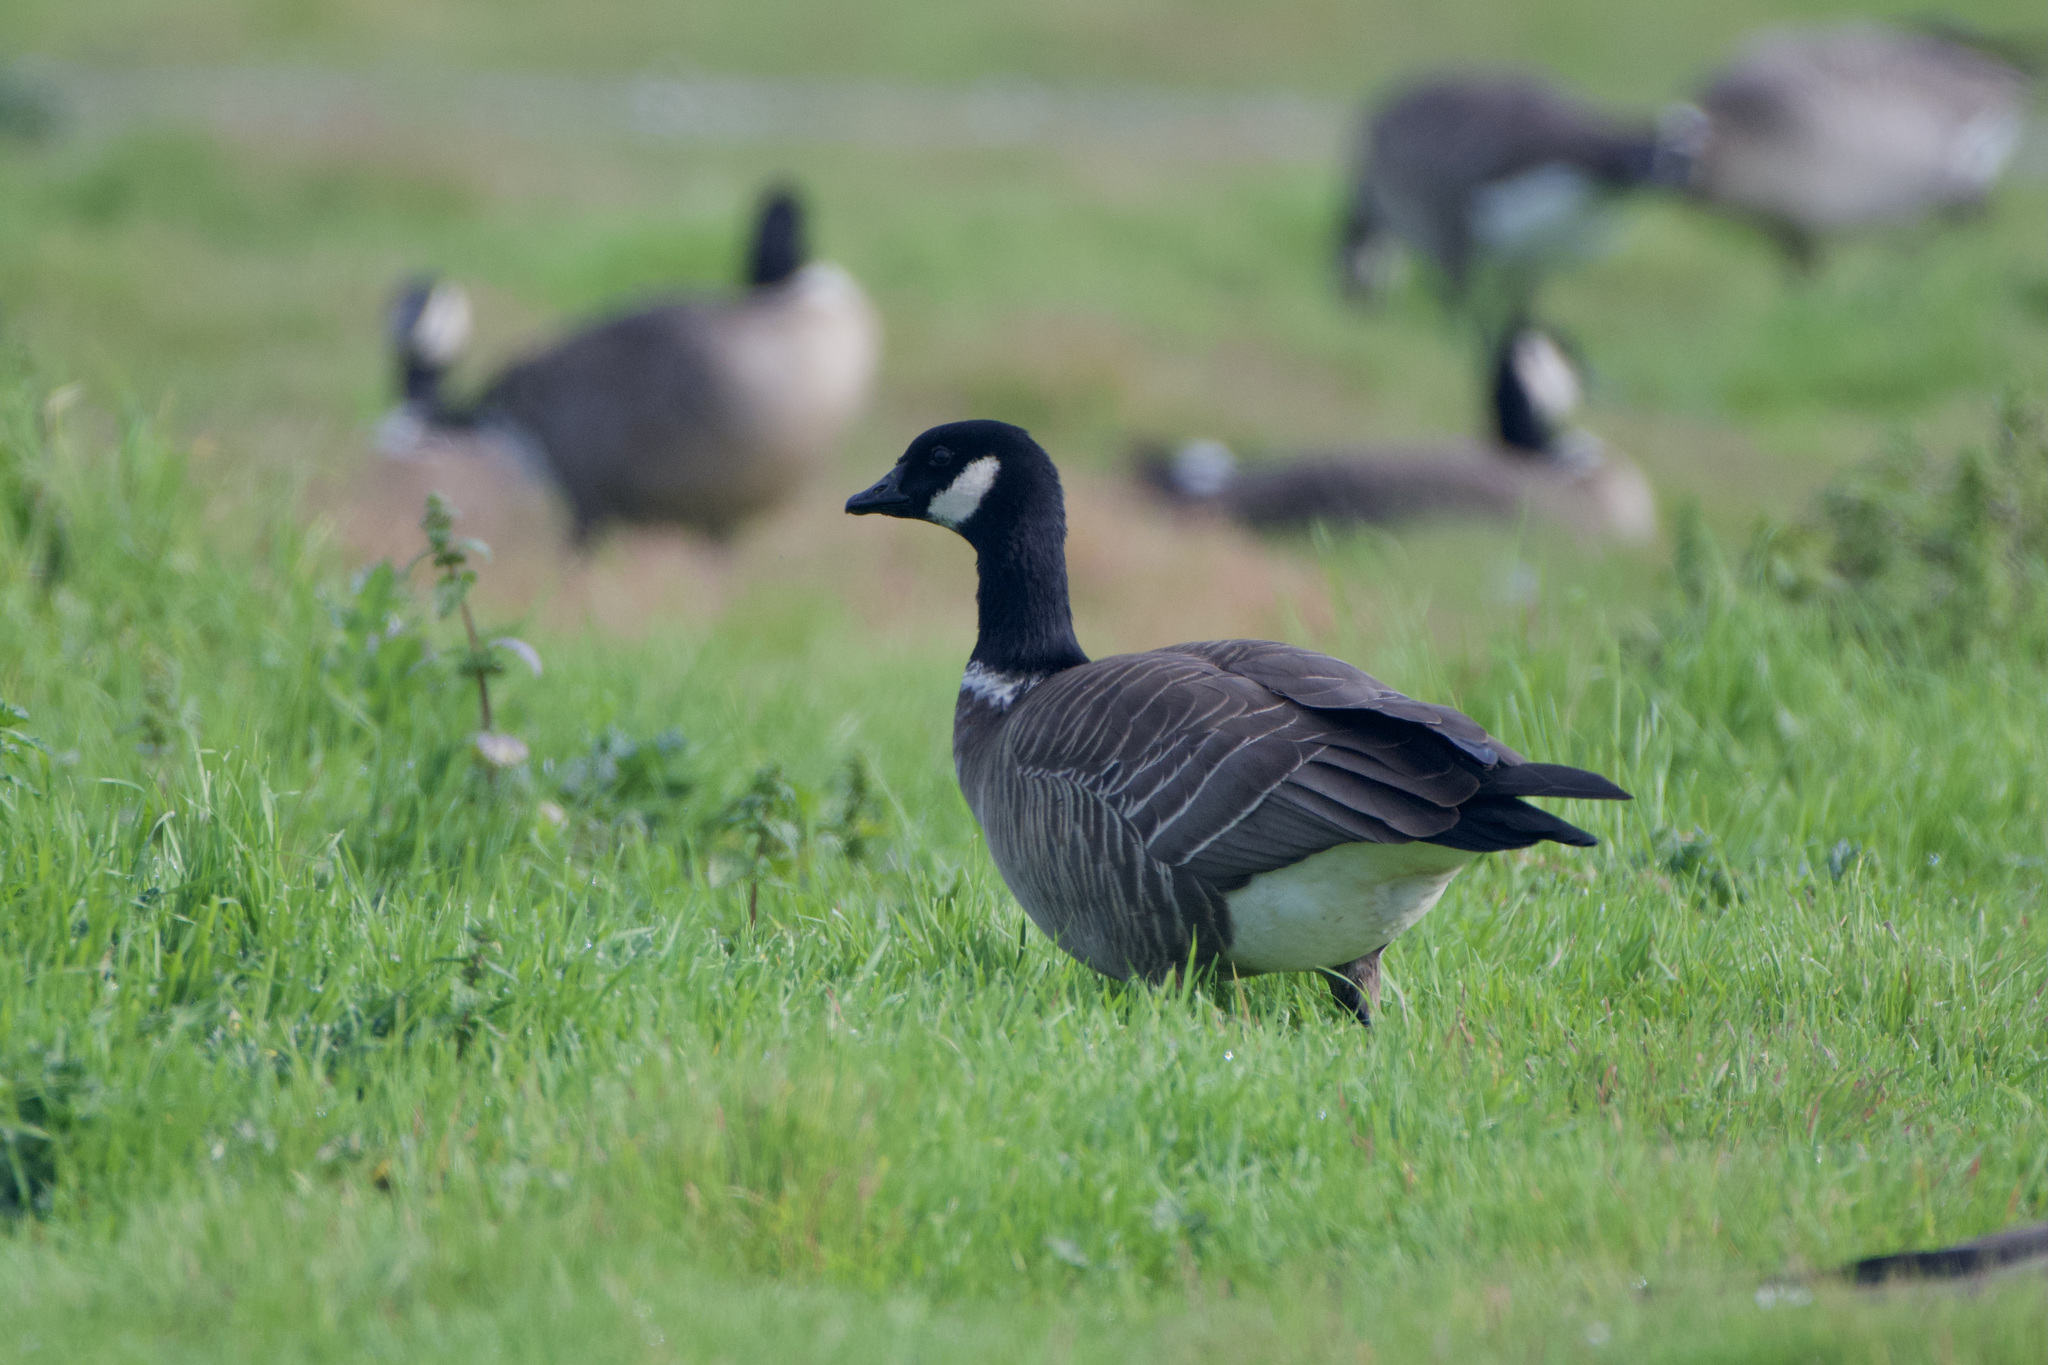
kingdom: Animalia
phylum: Chordata
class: Aves
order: Anseriformes
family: Anatidae
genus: Branta
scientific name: Branta hutchinsii
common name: Cackling goose
